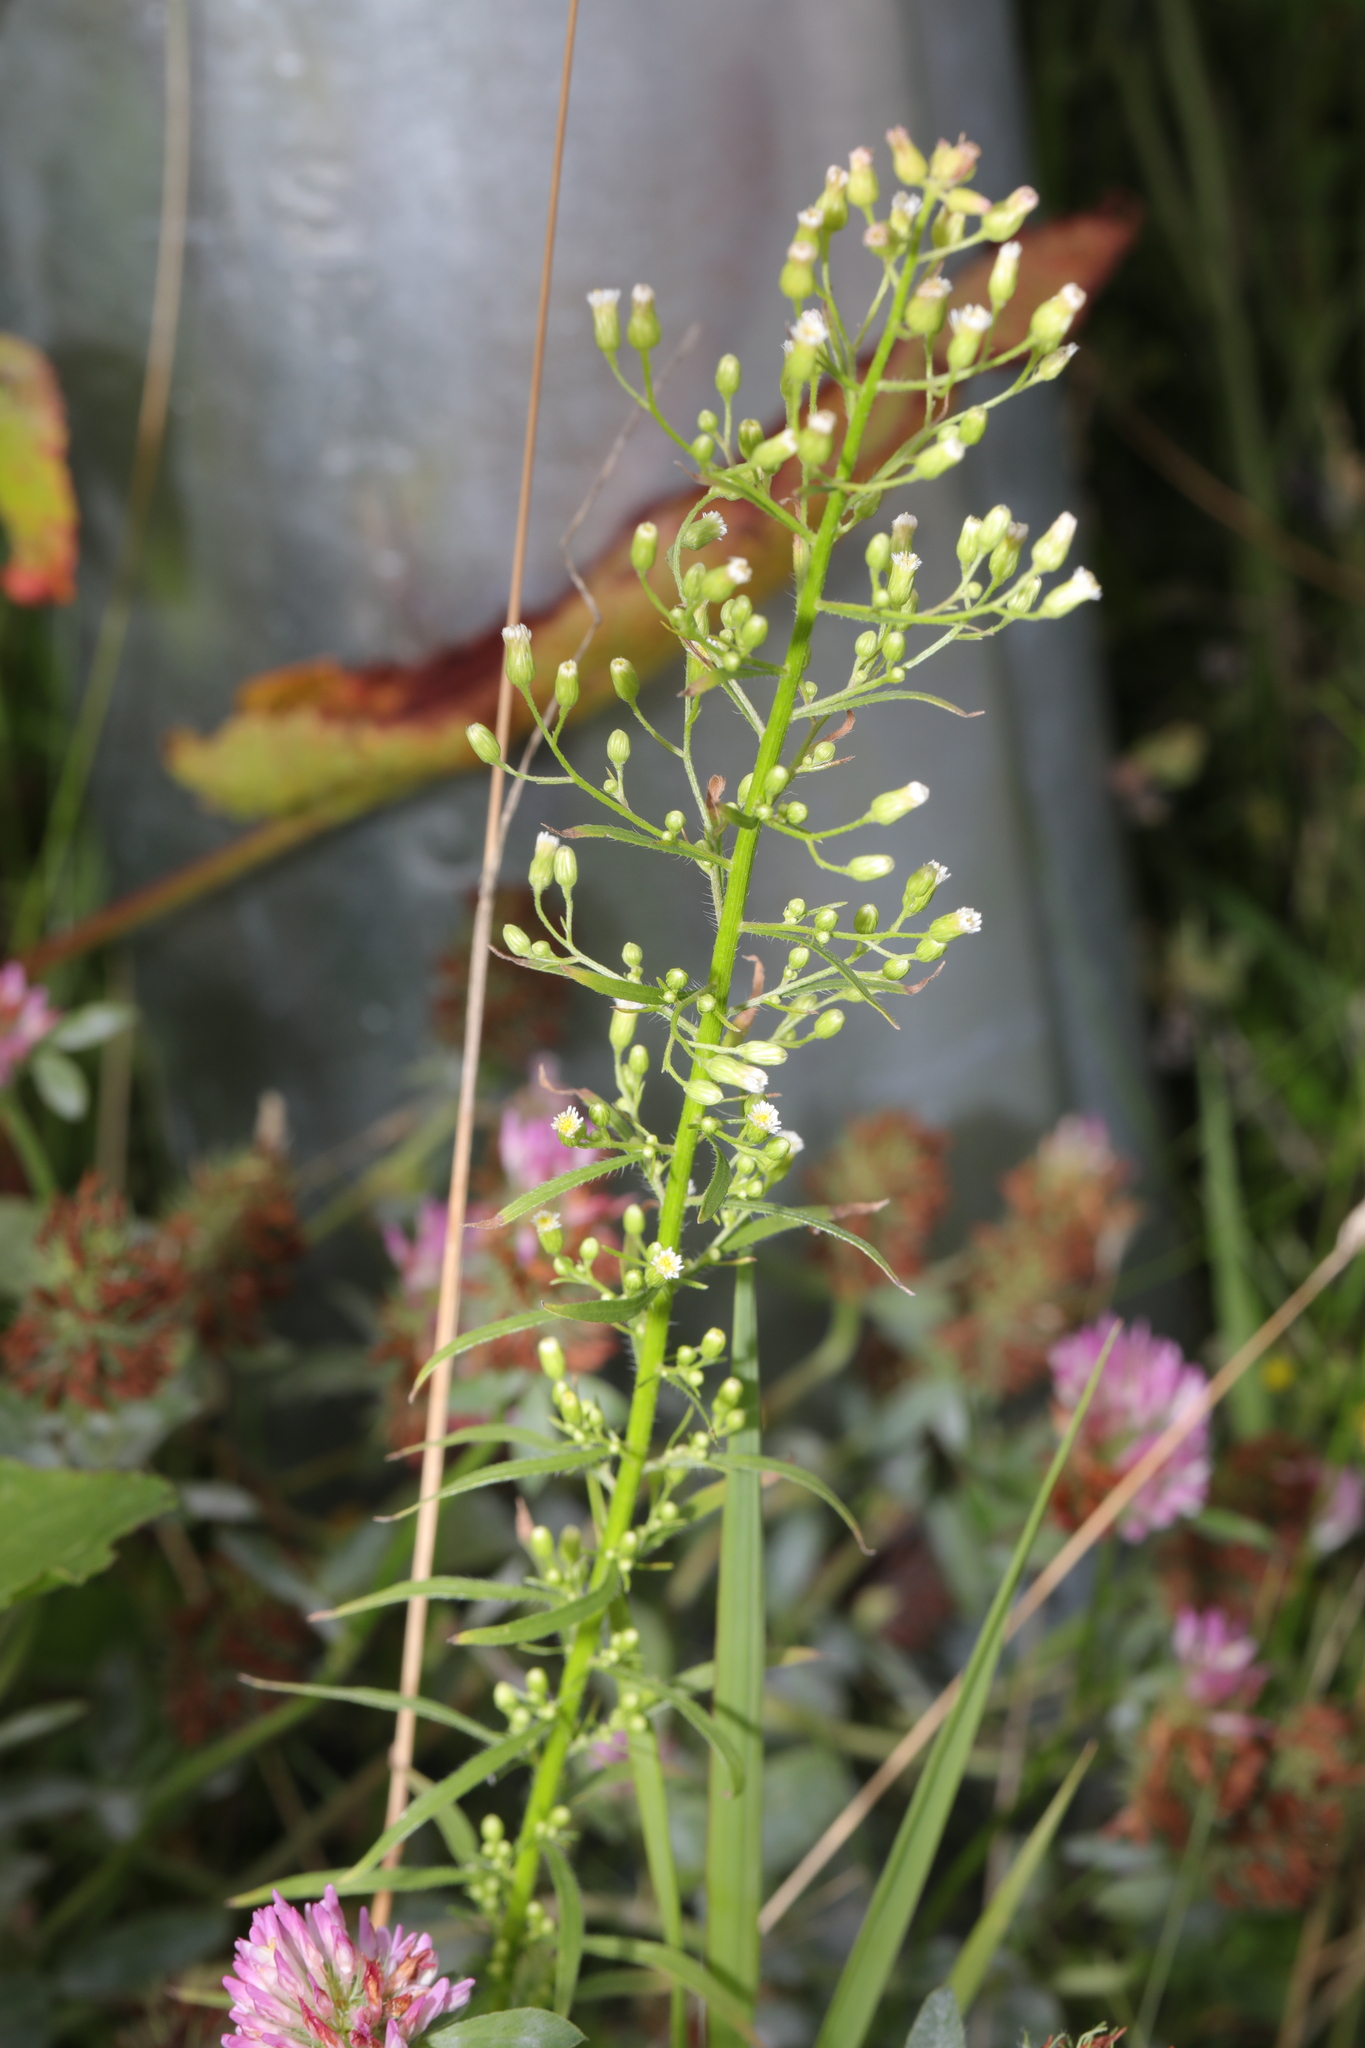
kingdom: Plantae
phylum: Tracheophyta
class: Magnoliopsida
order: Asterales
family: Asteraceae
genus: Erigeron
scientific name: Erigeron canadensis
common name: Canadian fleabane
